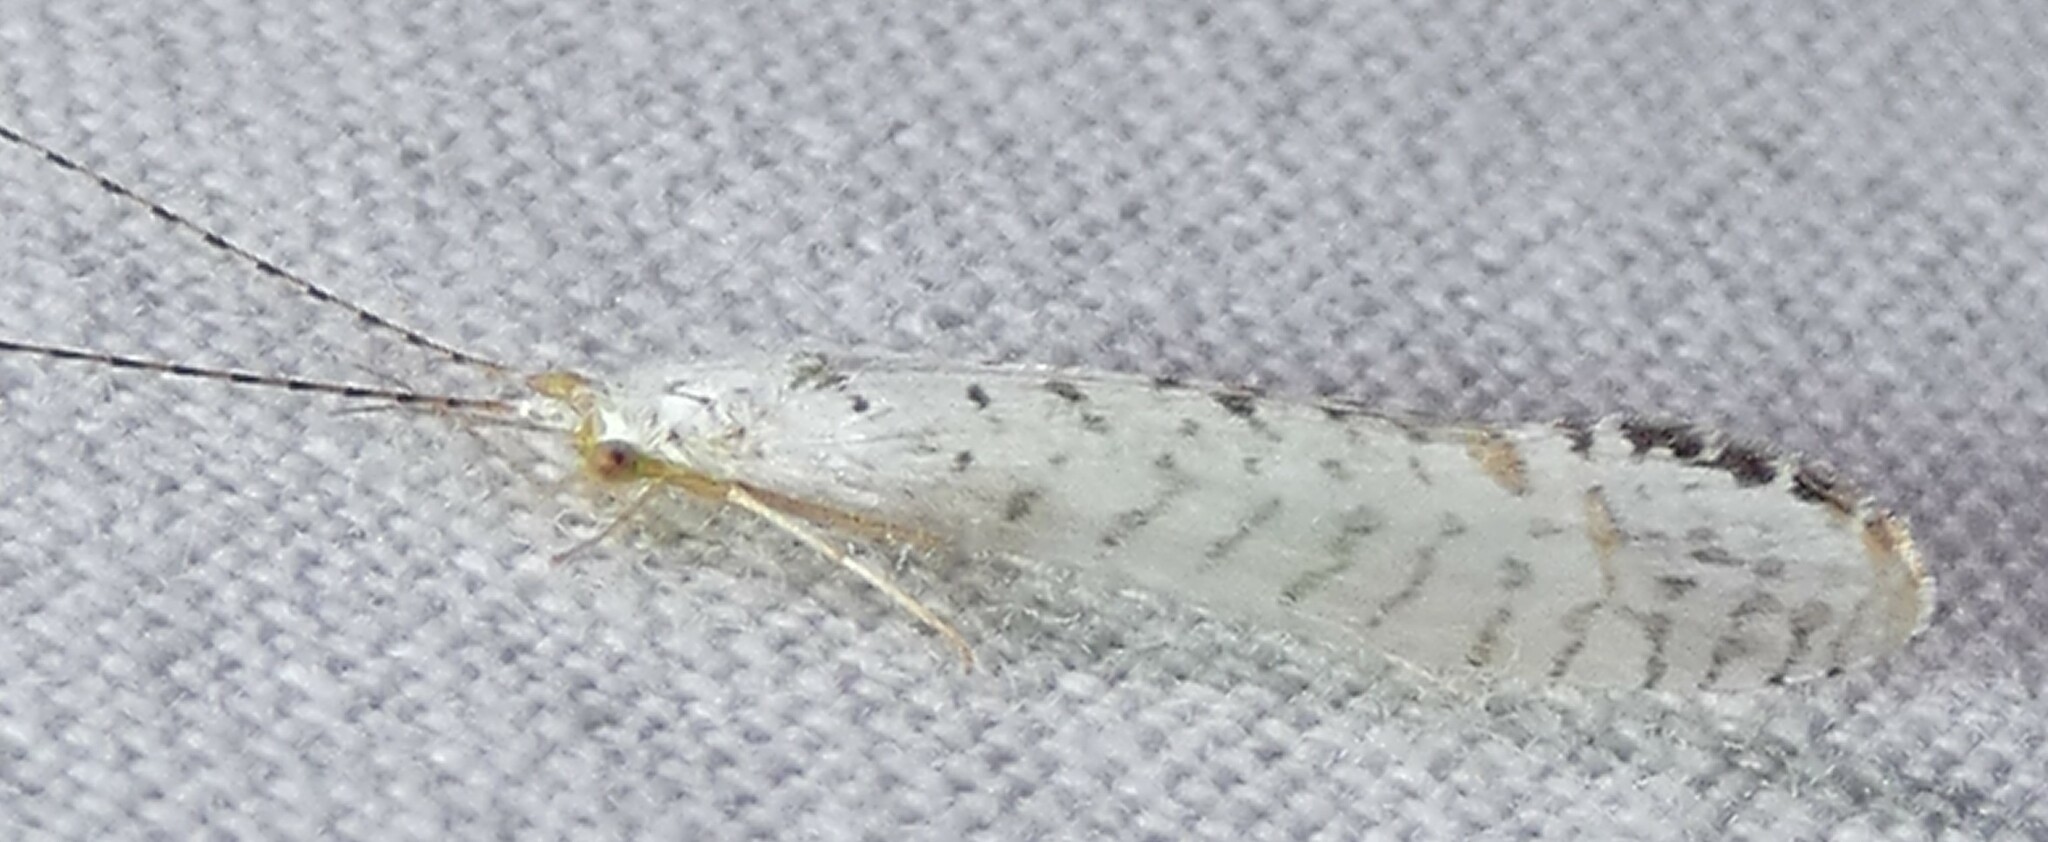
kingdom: Animalia
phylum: Arthropoda
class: Insecta
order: Trichoptera
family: Leptoceridae
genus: Nectopsyche
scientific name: Nectopsyche candida
